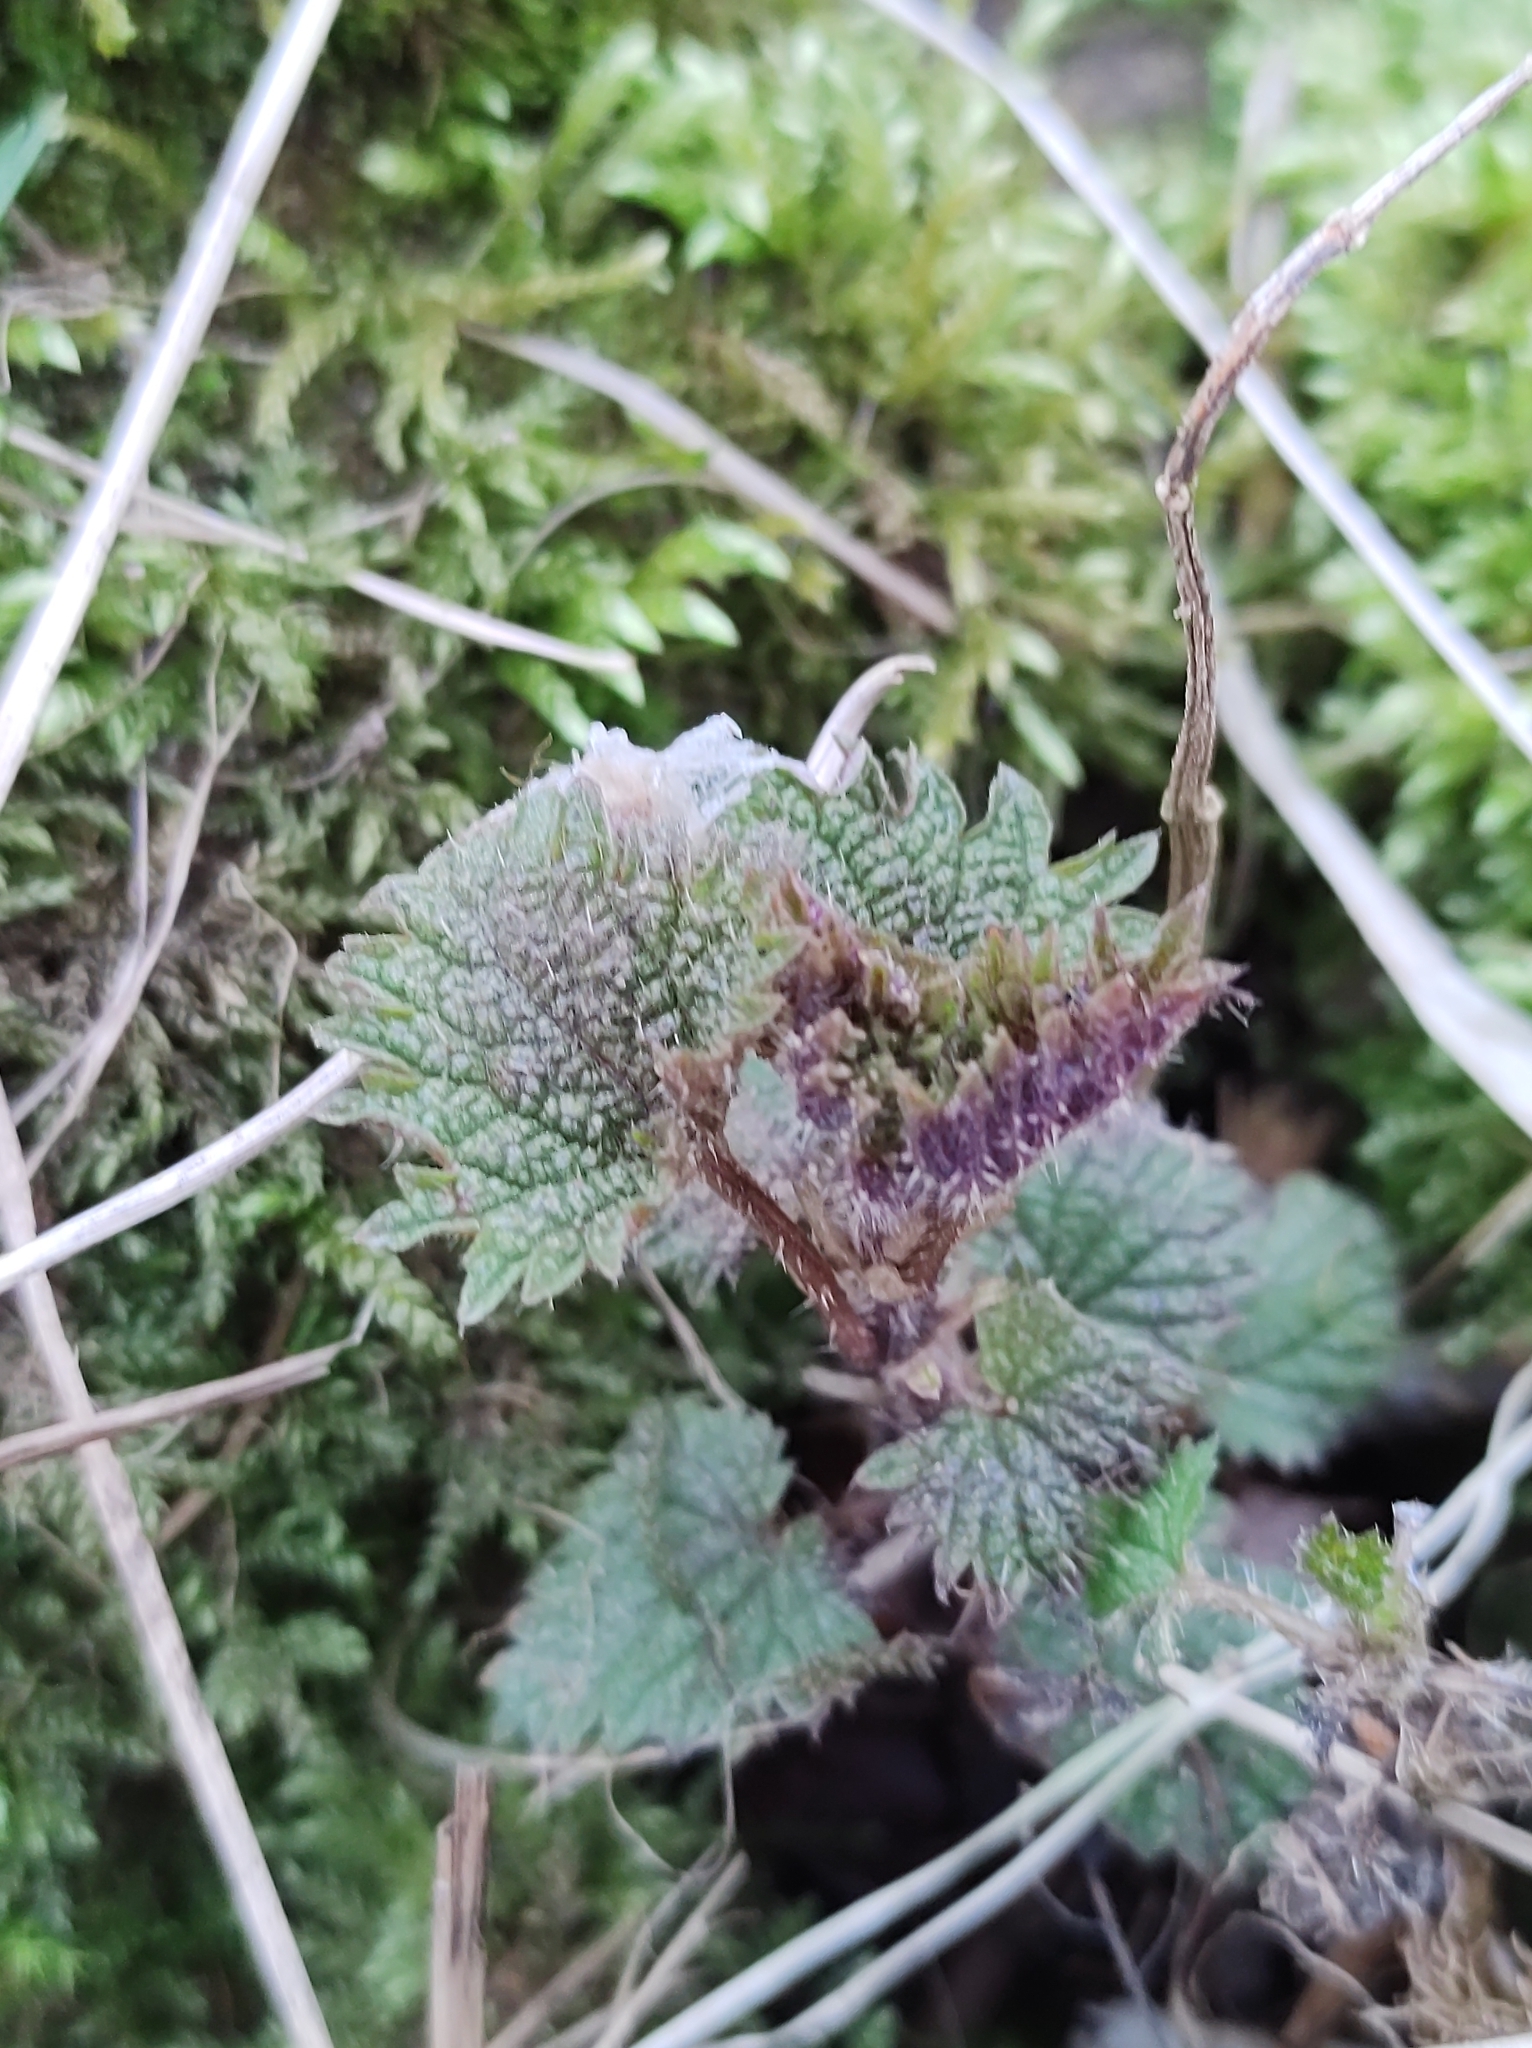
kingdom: Plantae
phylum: Tracheophyta
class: Magnoliopsida
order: Rosales
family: Urticaceae
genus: Urtica
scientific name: Urtica dioica
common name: Common nettle
